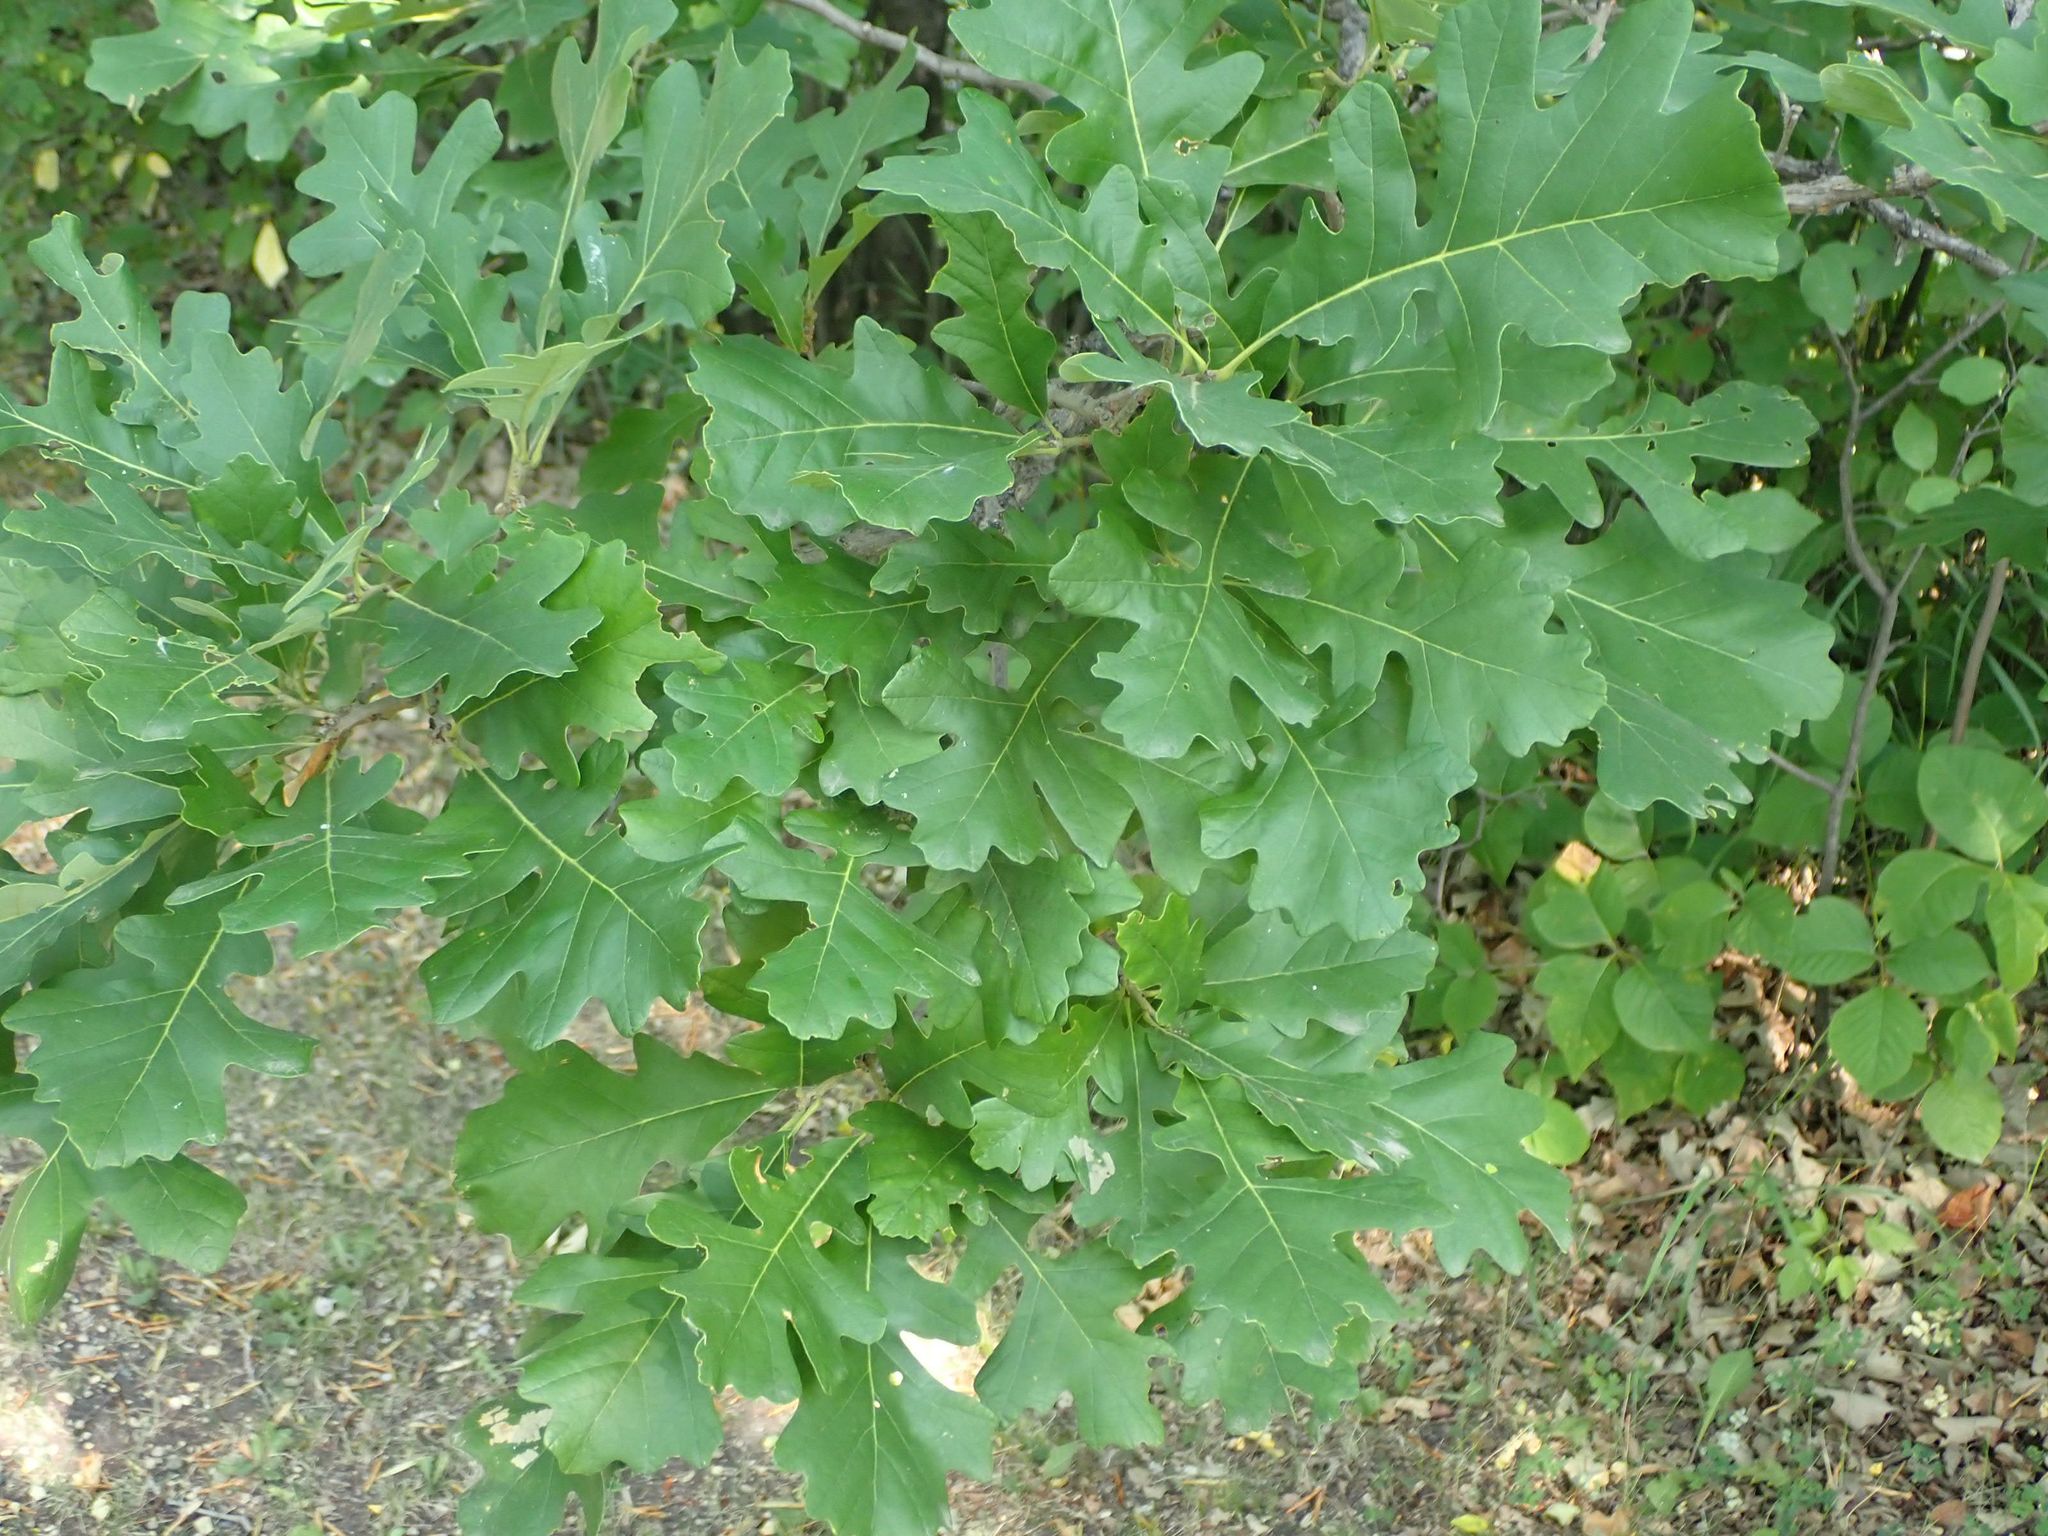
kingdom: Plantae
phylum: Tracheophyta
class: Magnoliopsida
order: Fagales
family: Fagaceae
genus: Quercus
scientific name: Quercus macrocarpa
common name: Bur oak
